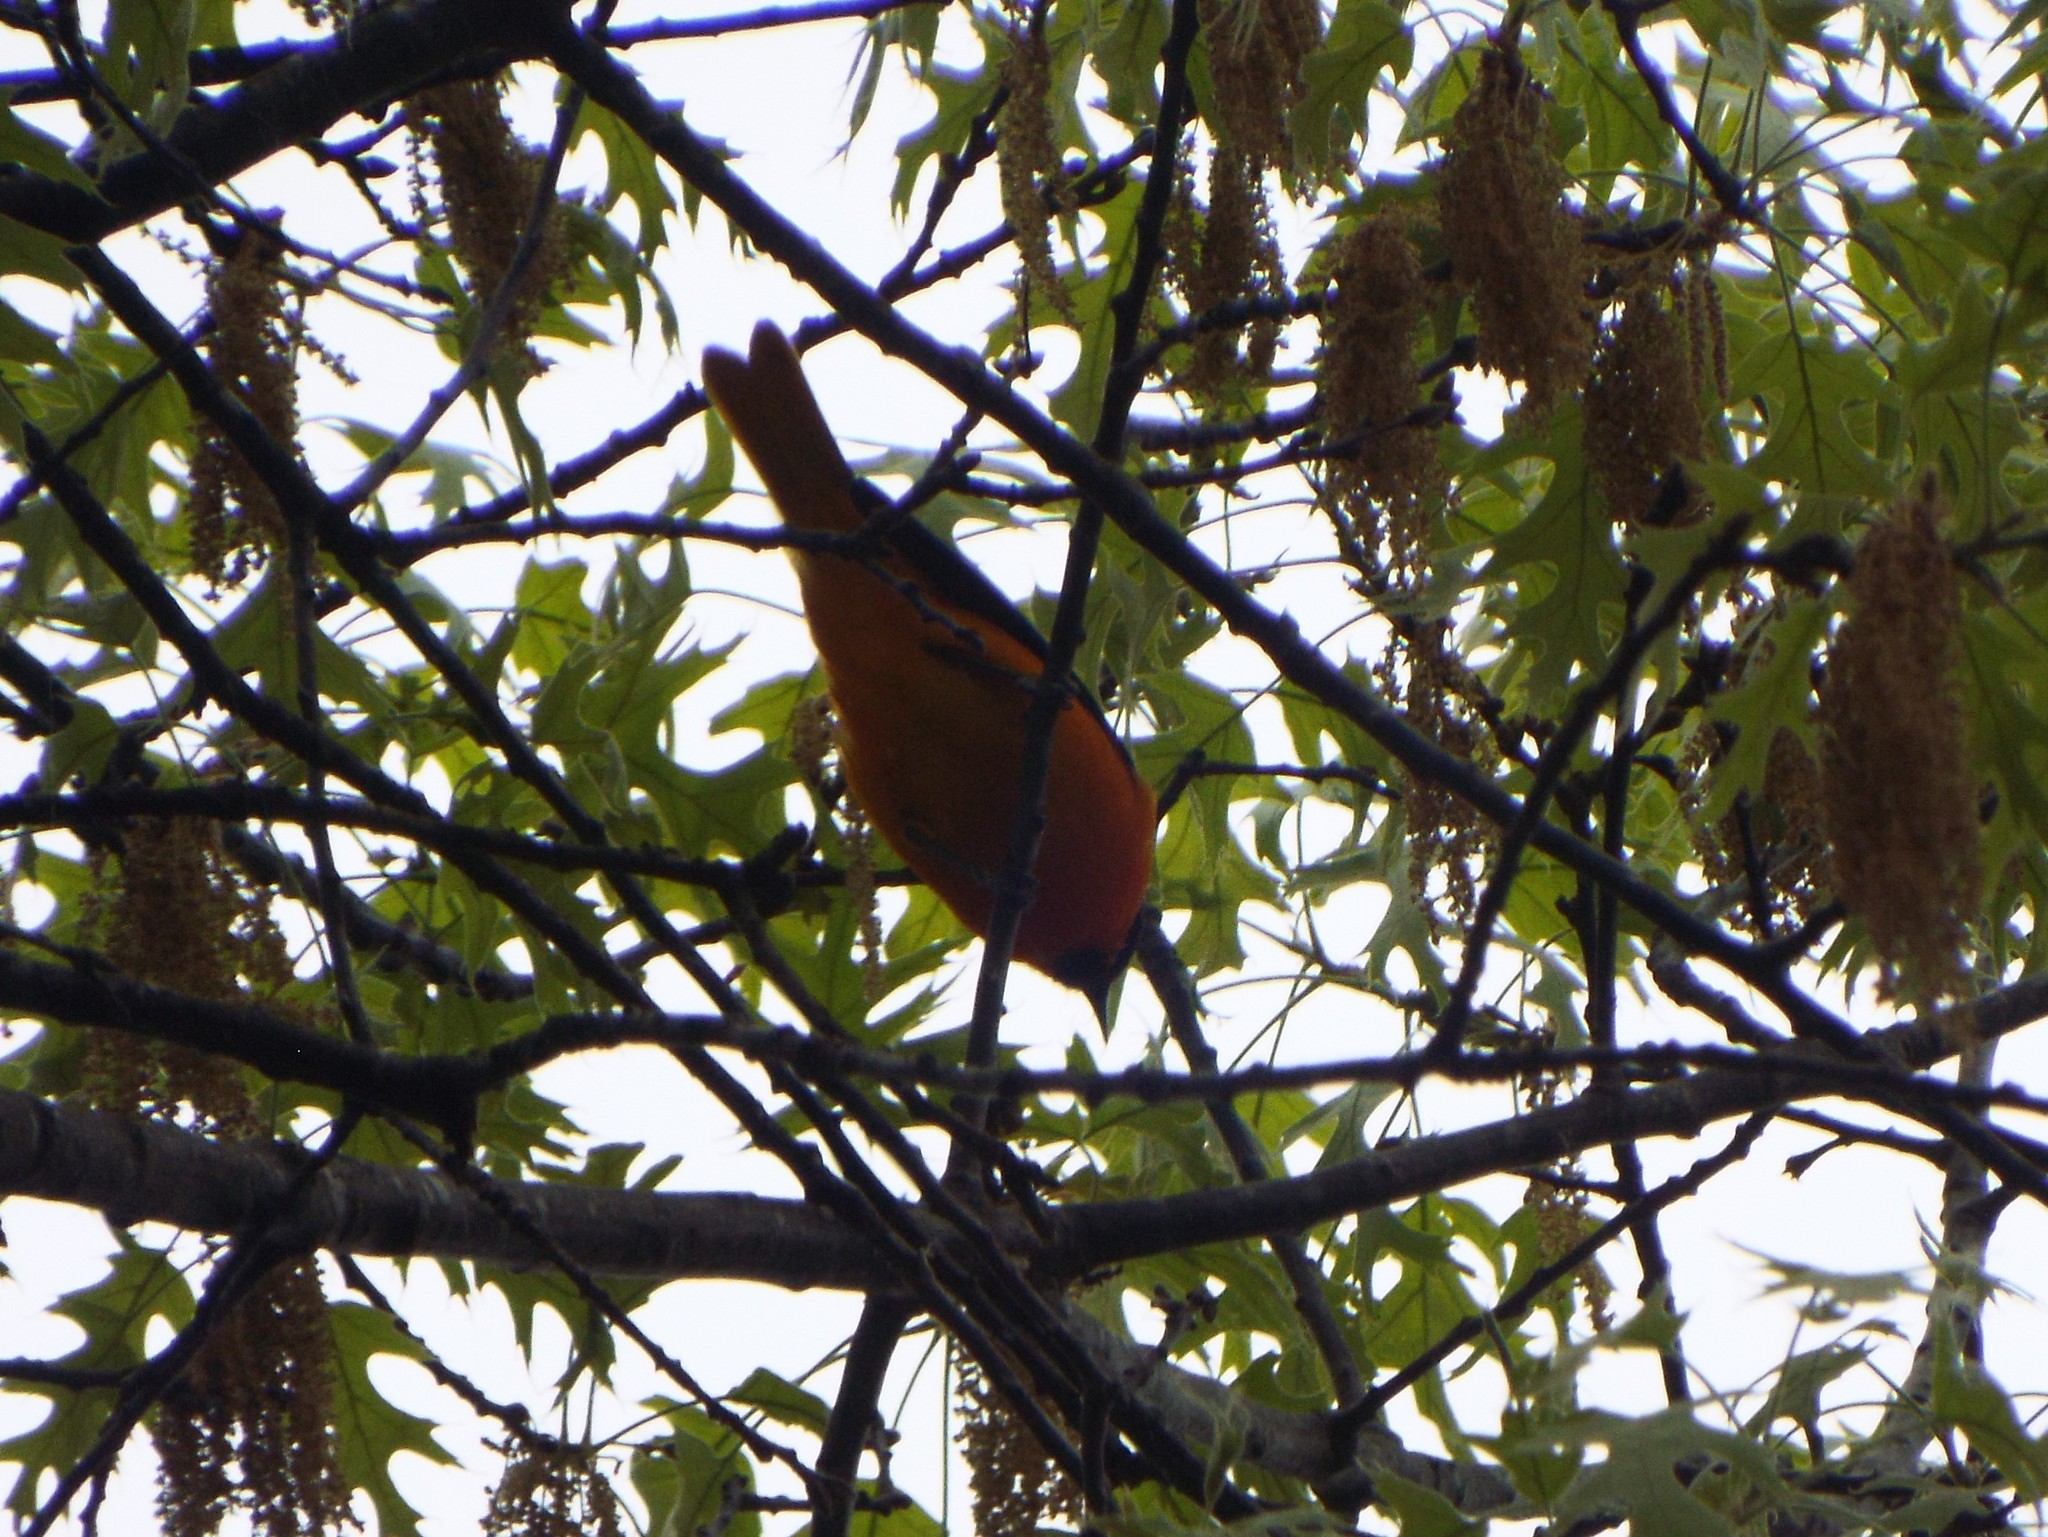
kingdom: Animalia
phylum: Chordata
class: Aves
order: Passeriformes
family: Icteridae
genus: Icterus
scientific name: Icterus galbula
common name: Baltimore oriole
